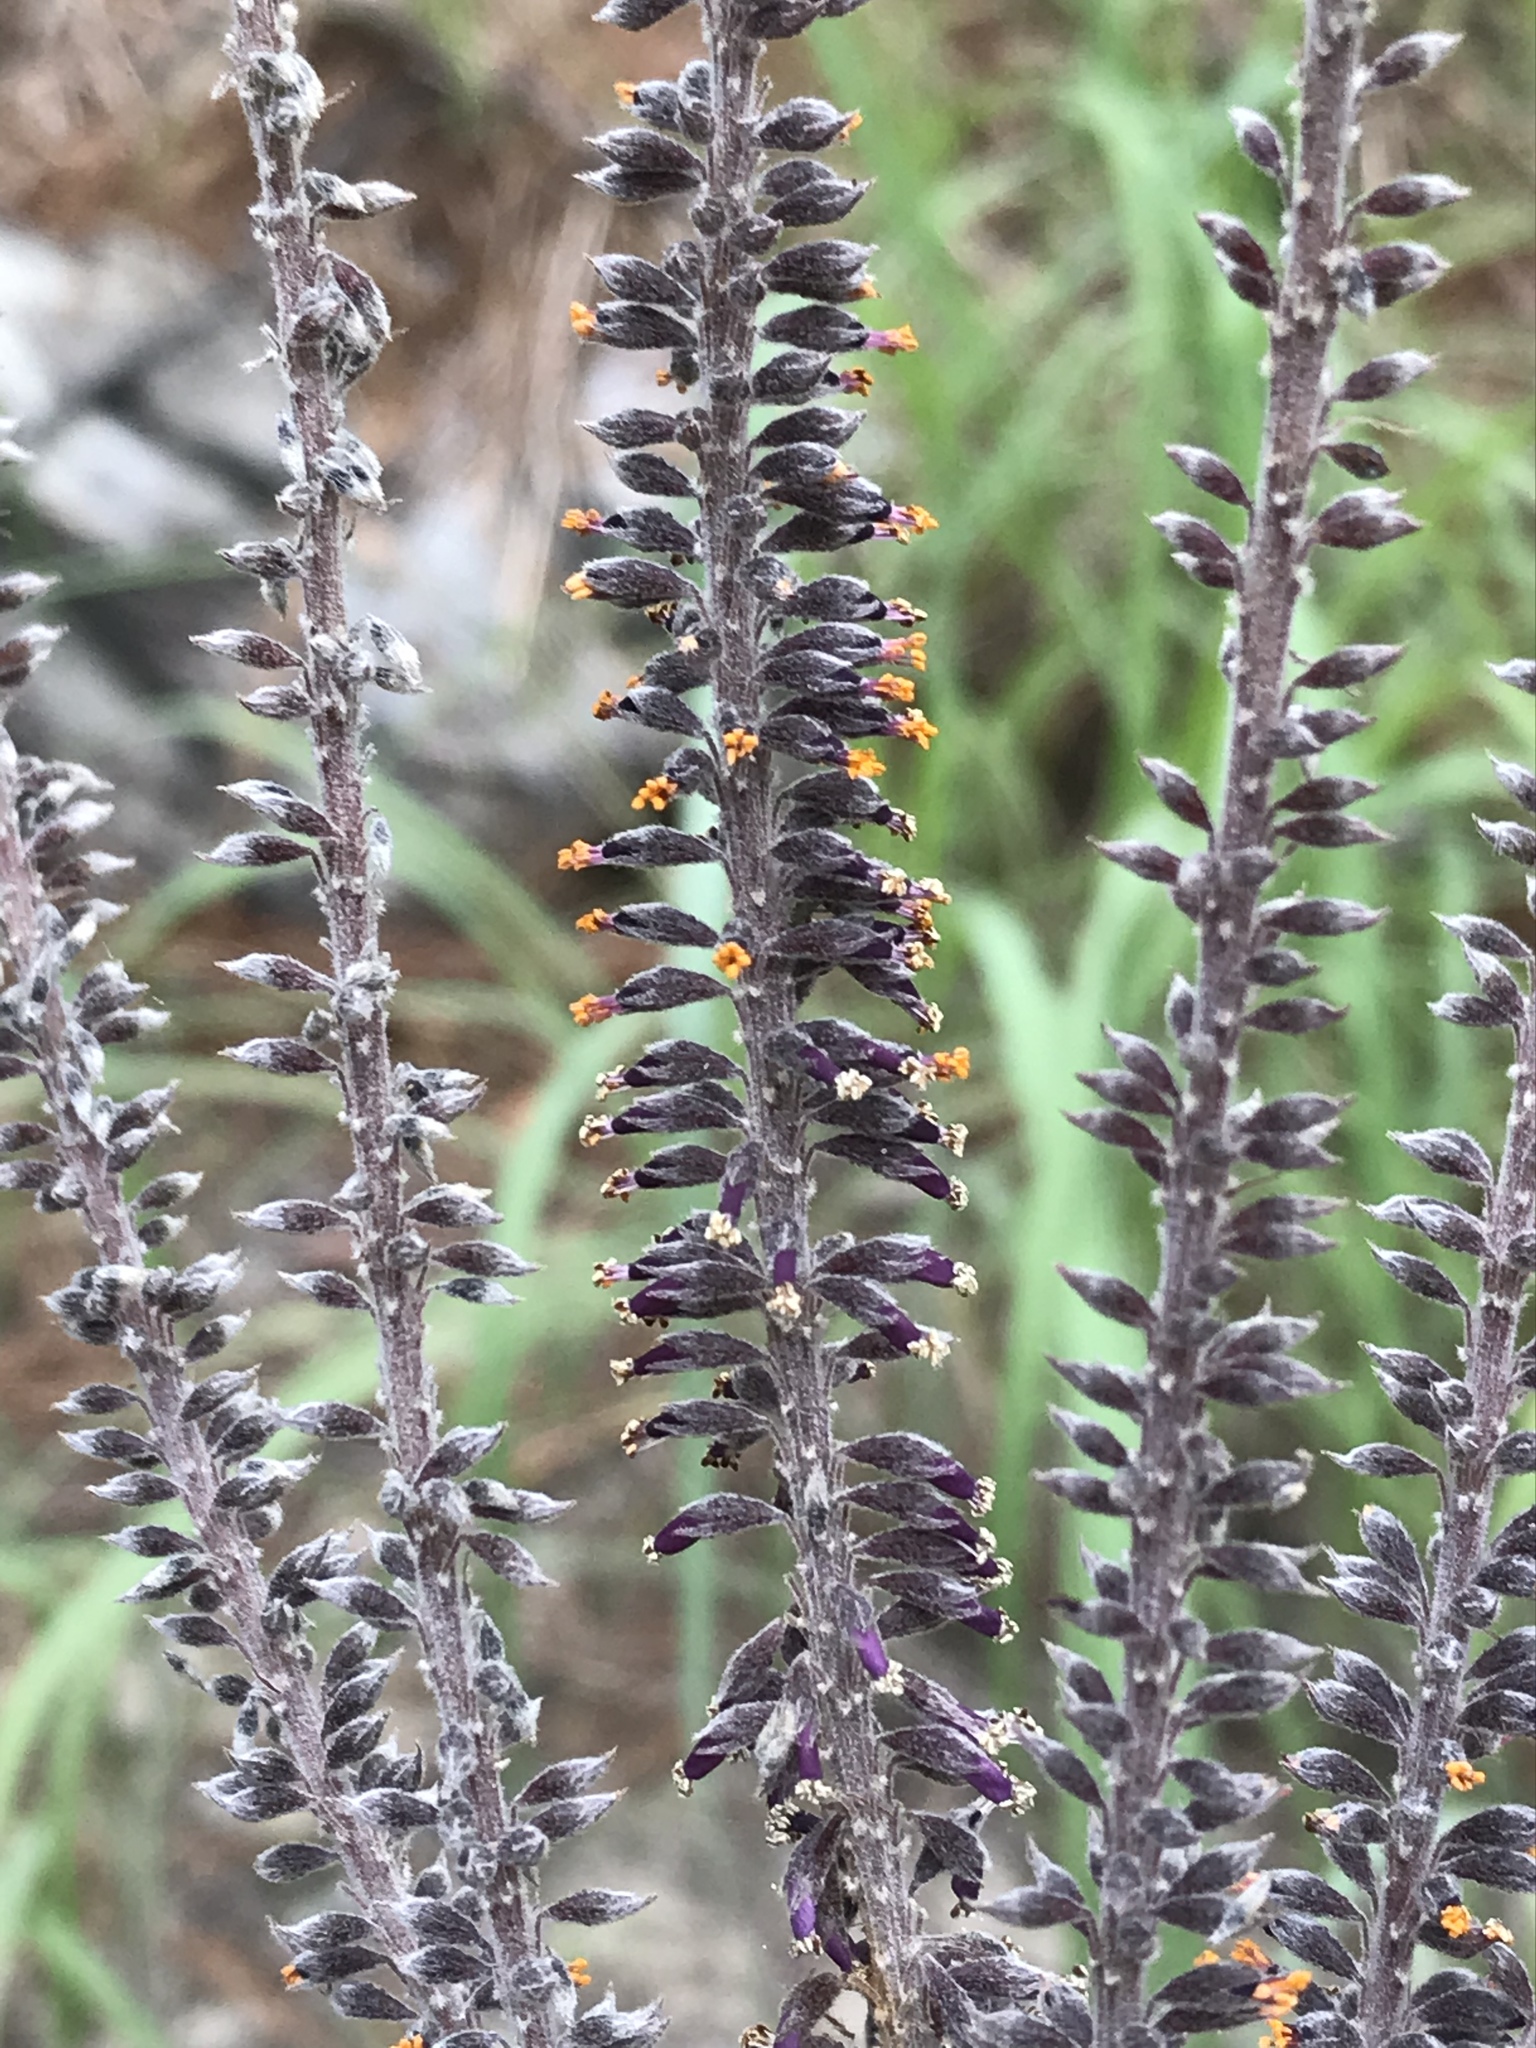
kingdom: Plantae
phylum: Tracheophyta
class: Magnoliopsida
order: Fabales
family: Fabaceae
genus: Amorpha
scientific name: Amorpha paniculata
